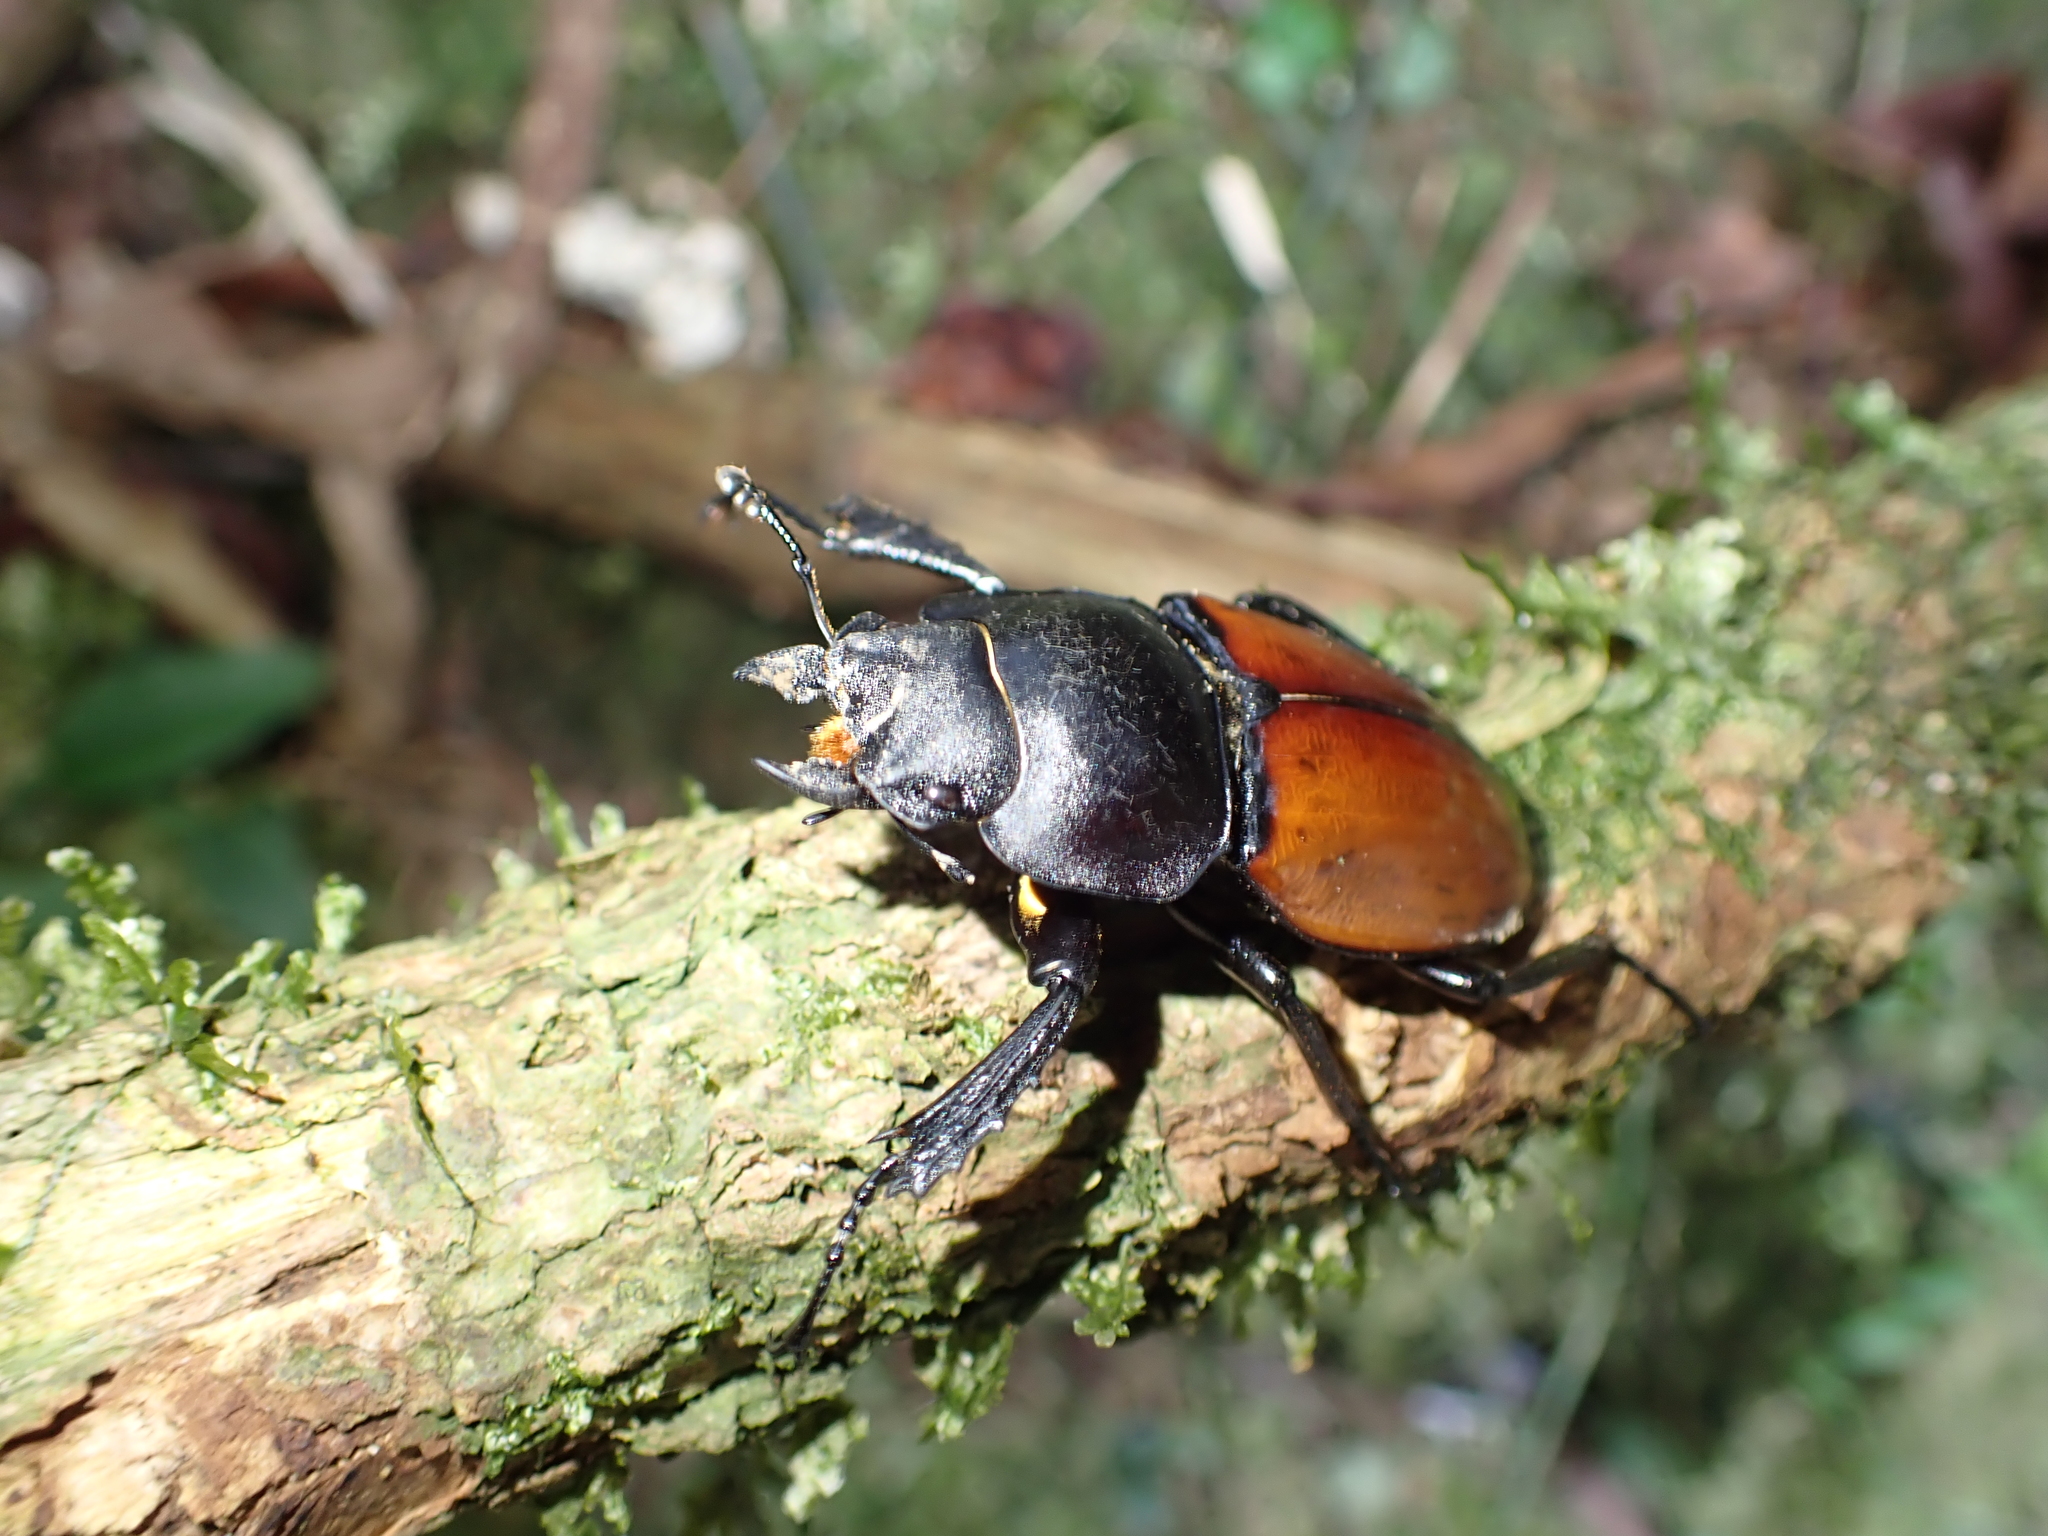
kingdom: Animalia
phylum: Arthropoda
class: Insecta
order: Coleoptera
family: Lucanidae
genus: Neolucanus
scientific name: Neolucanus swinhoei
